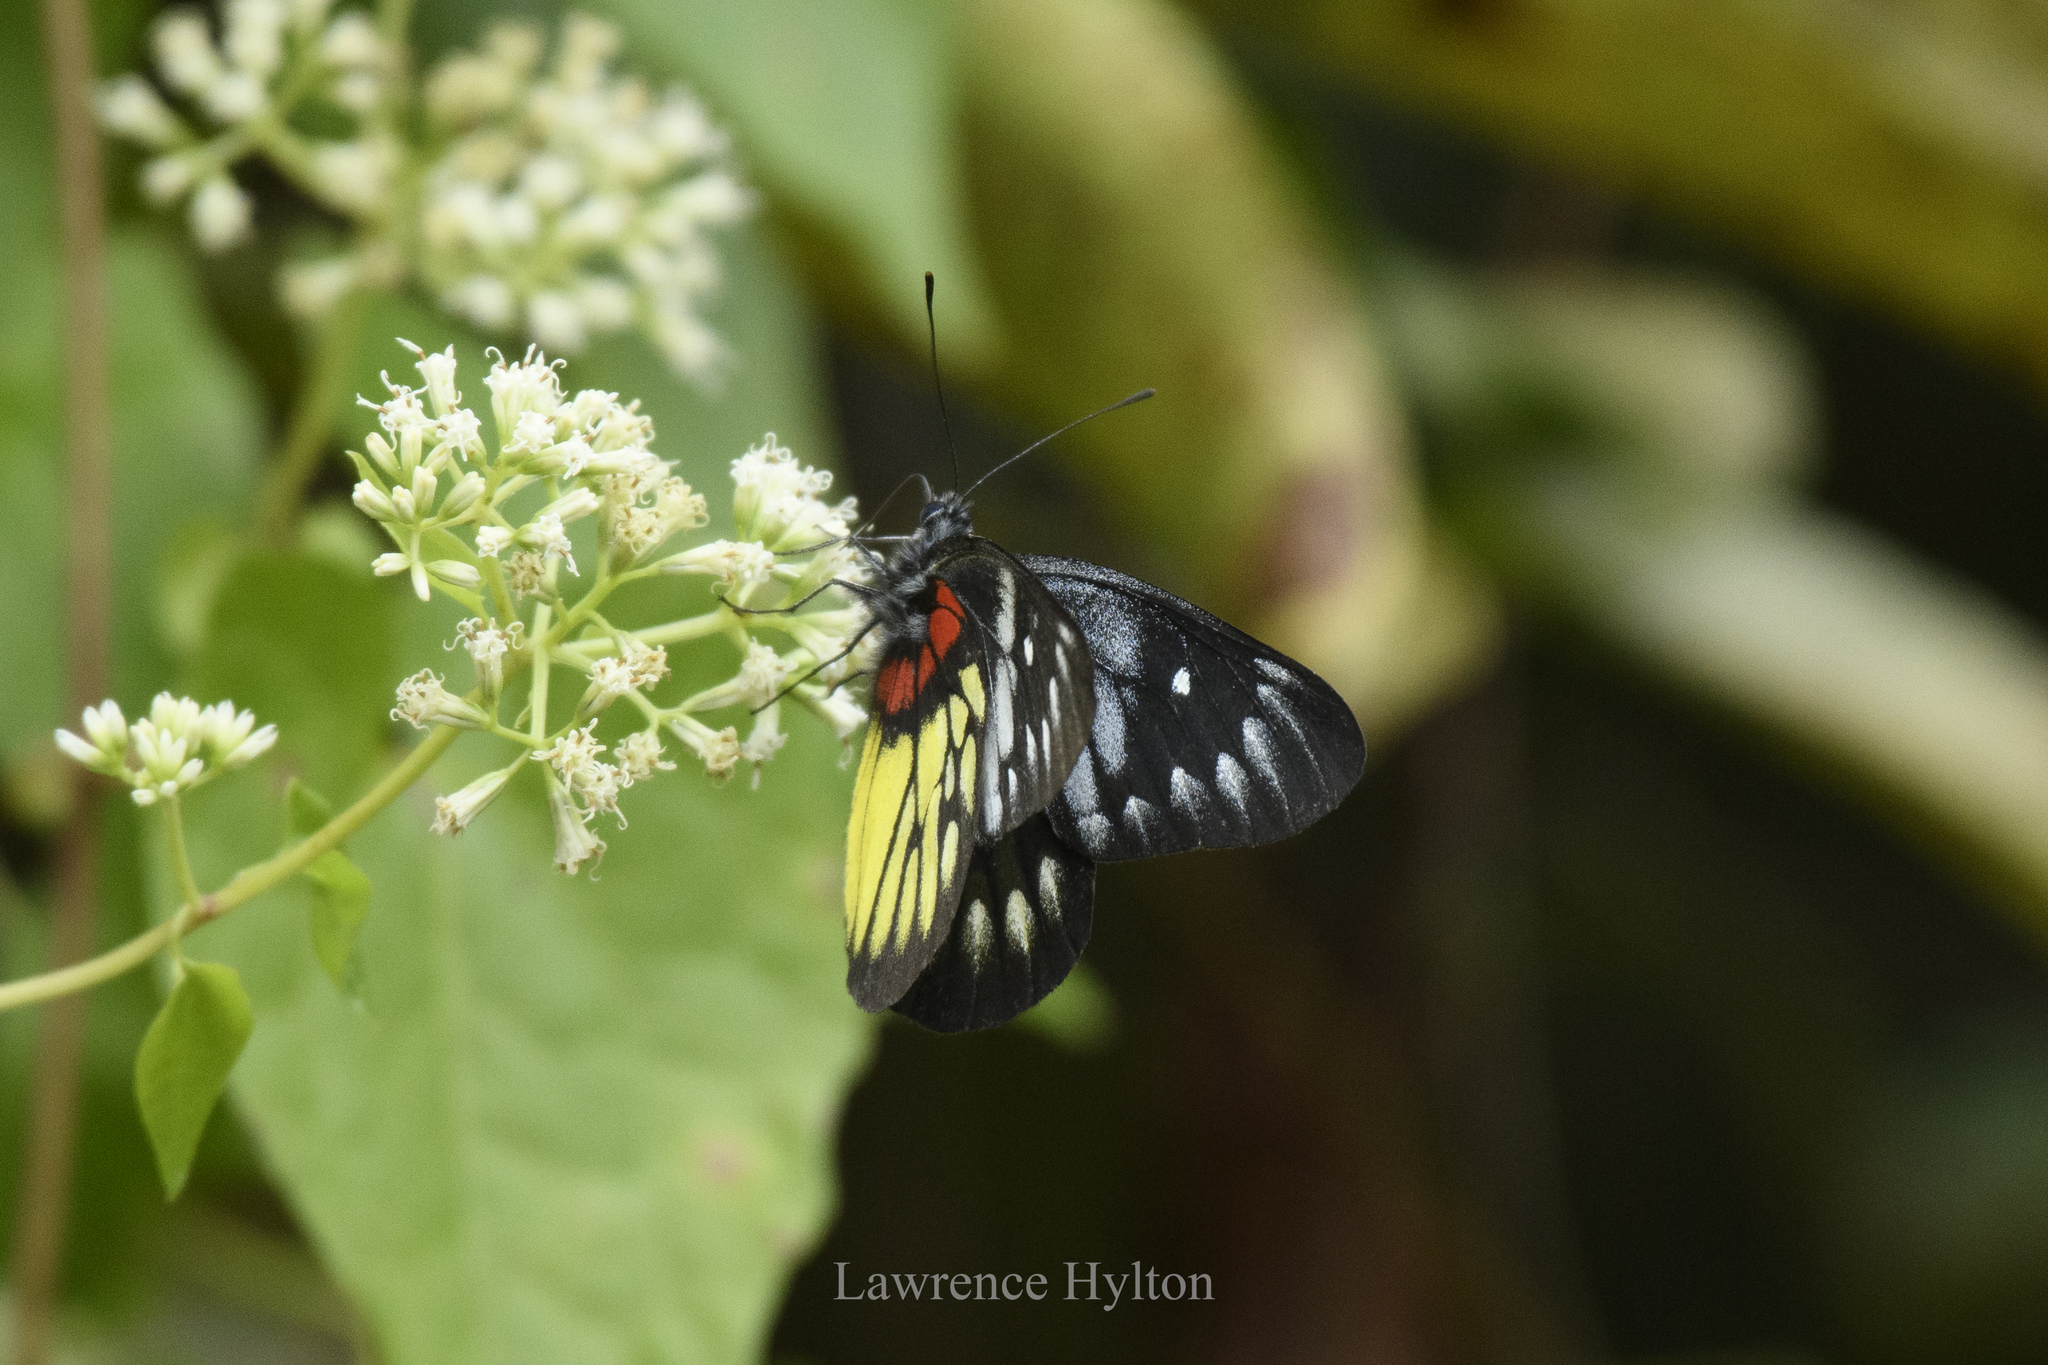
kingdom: Animalia
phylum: Arthropoda
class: Insecta
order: Lepidoptera
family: Pieridae
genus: Delias
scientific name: Delias pasithoe
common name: Red-base jezebel
